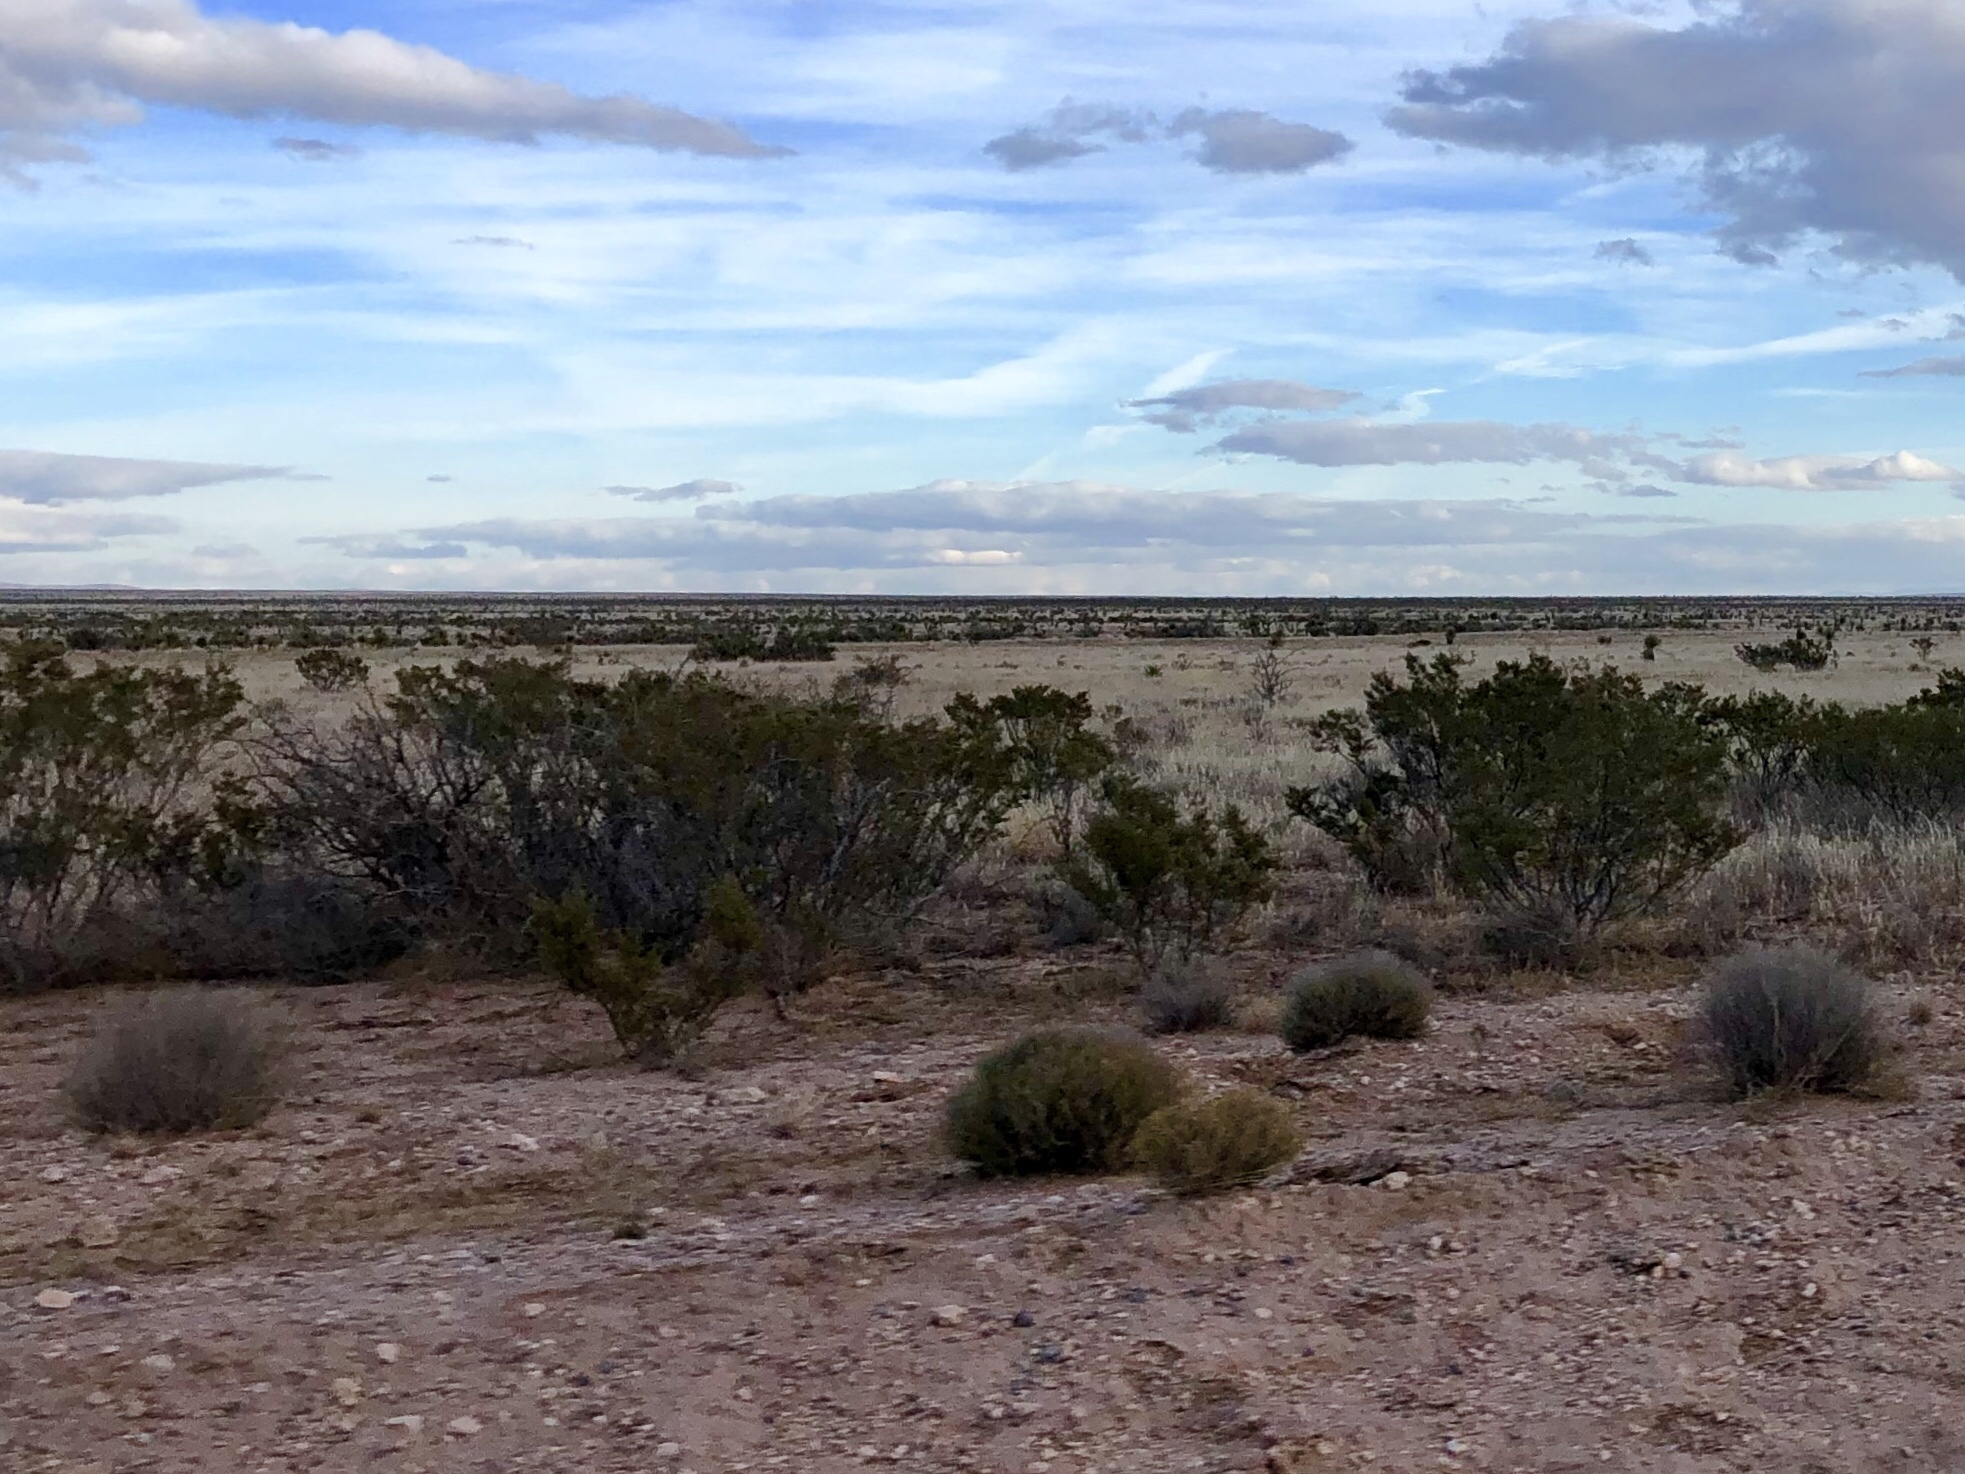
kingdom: Plantae
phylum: Tracheophyta
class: Magnoliopsida
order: Zygophyllales
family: Zygophyllaceae
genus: Larrea
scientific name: Larrea tridentata
